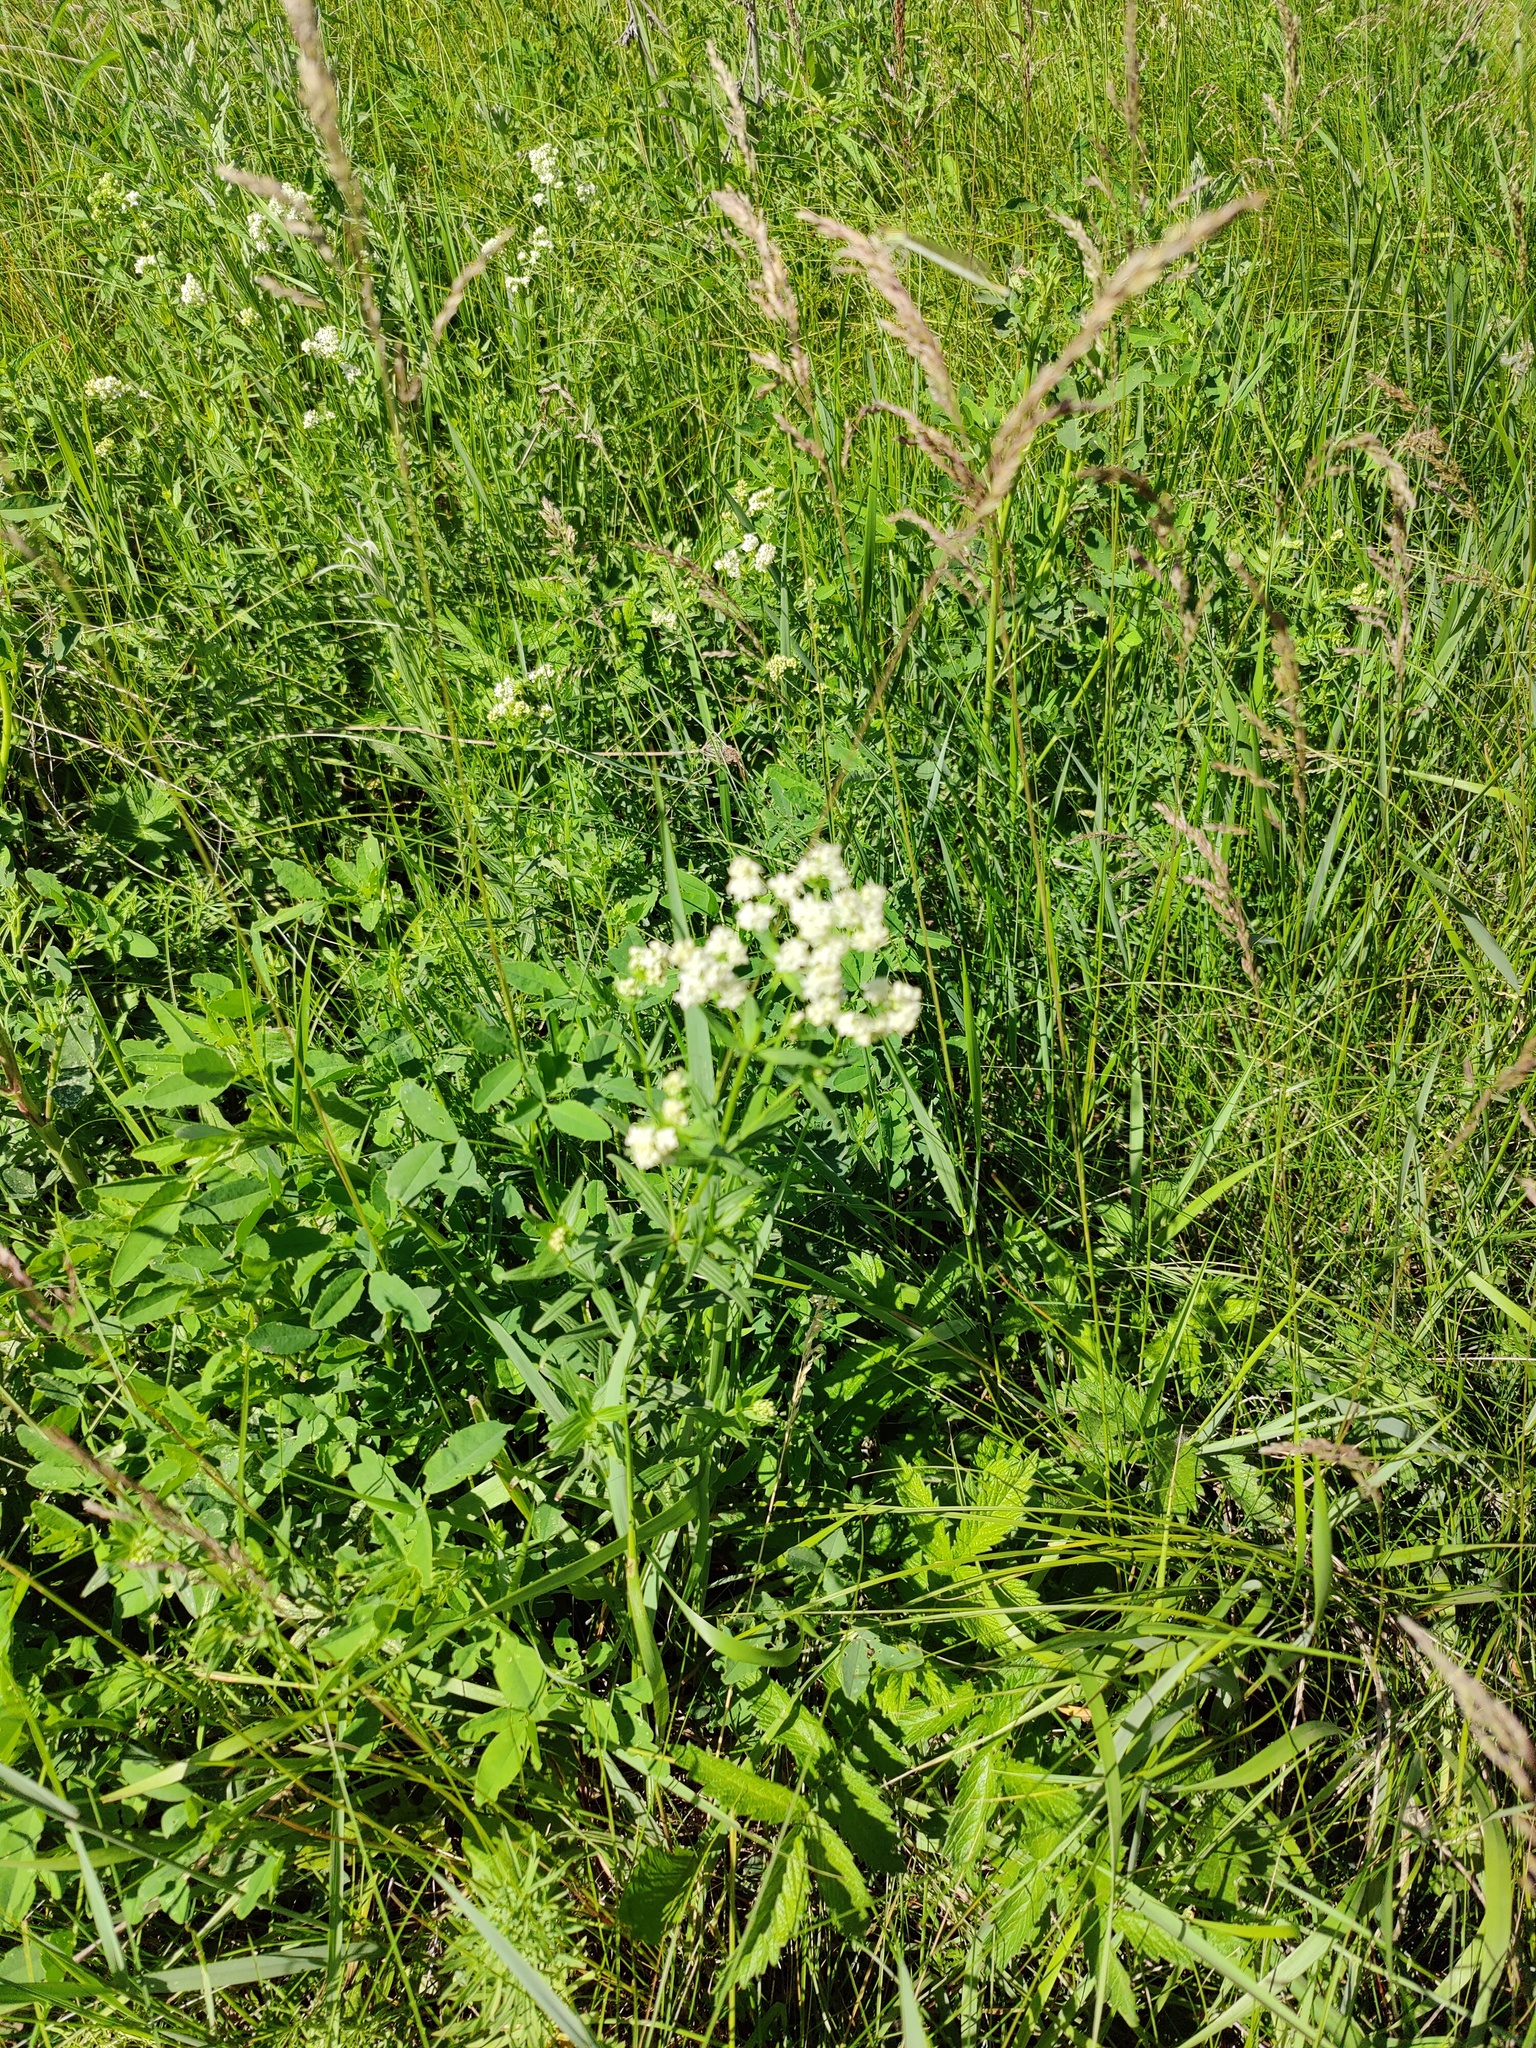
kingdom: Plantae
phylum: Tracheophyta
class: Magnoliopsida
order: Gentianales
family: Rubiaceae
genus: Galium
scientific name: Galium boreale
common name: Northern bedstraw
